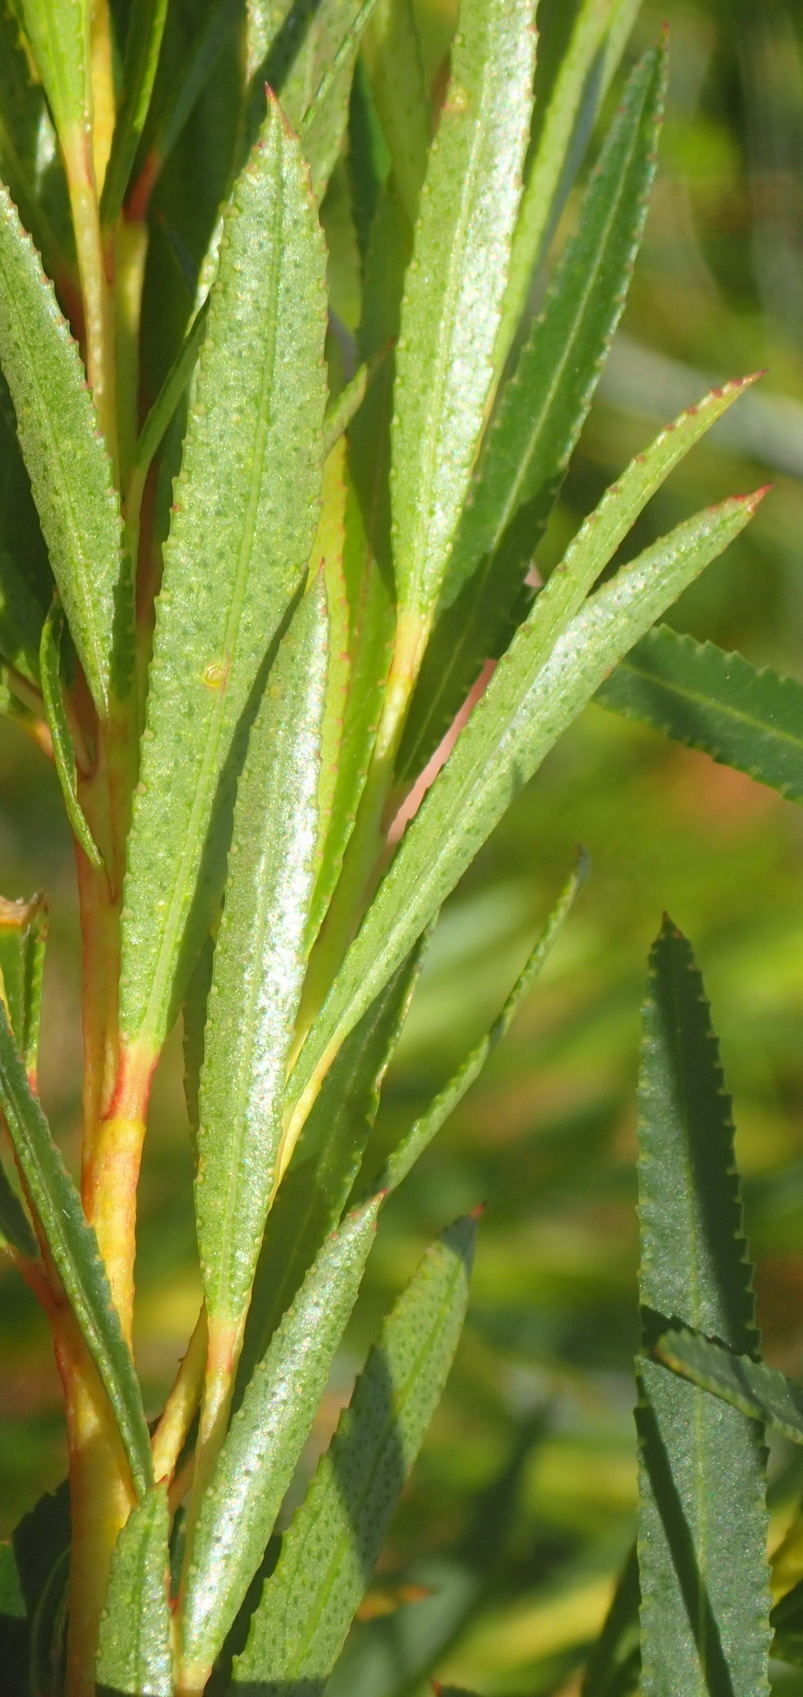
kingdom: Plantae
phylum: Tracheophyta
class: Magnoliopsida
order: Sapindales
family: Rutaceae
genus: Empleurum
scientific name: Empleurum unicapsulare
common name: False buchu
